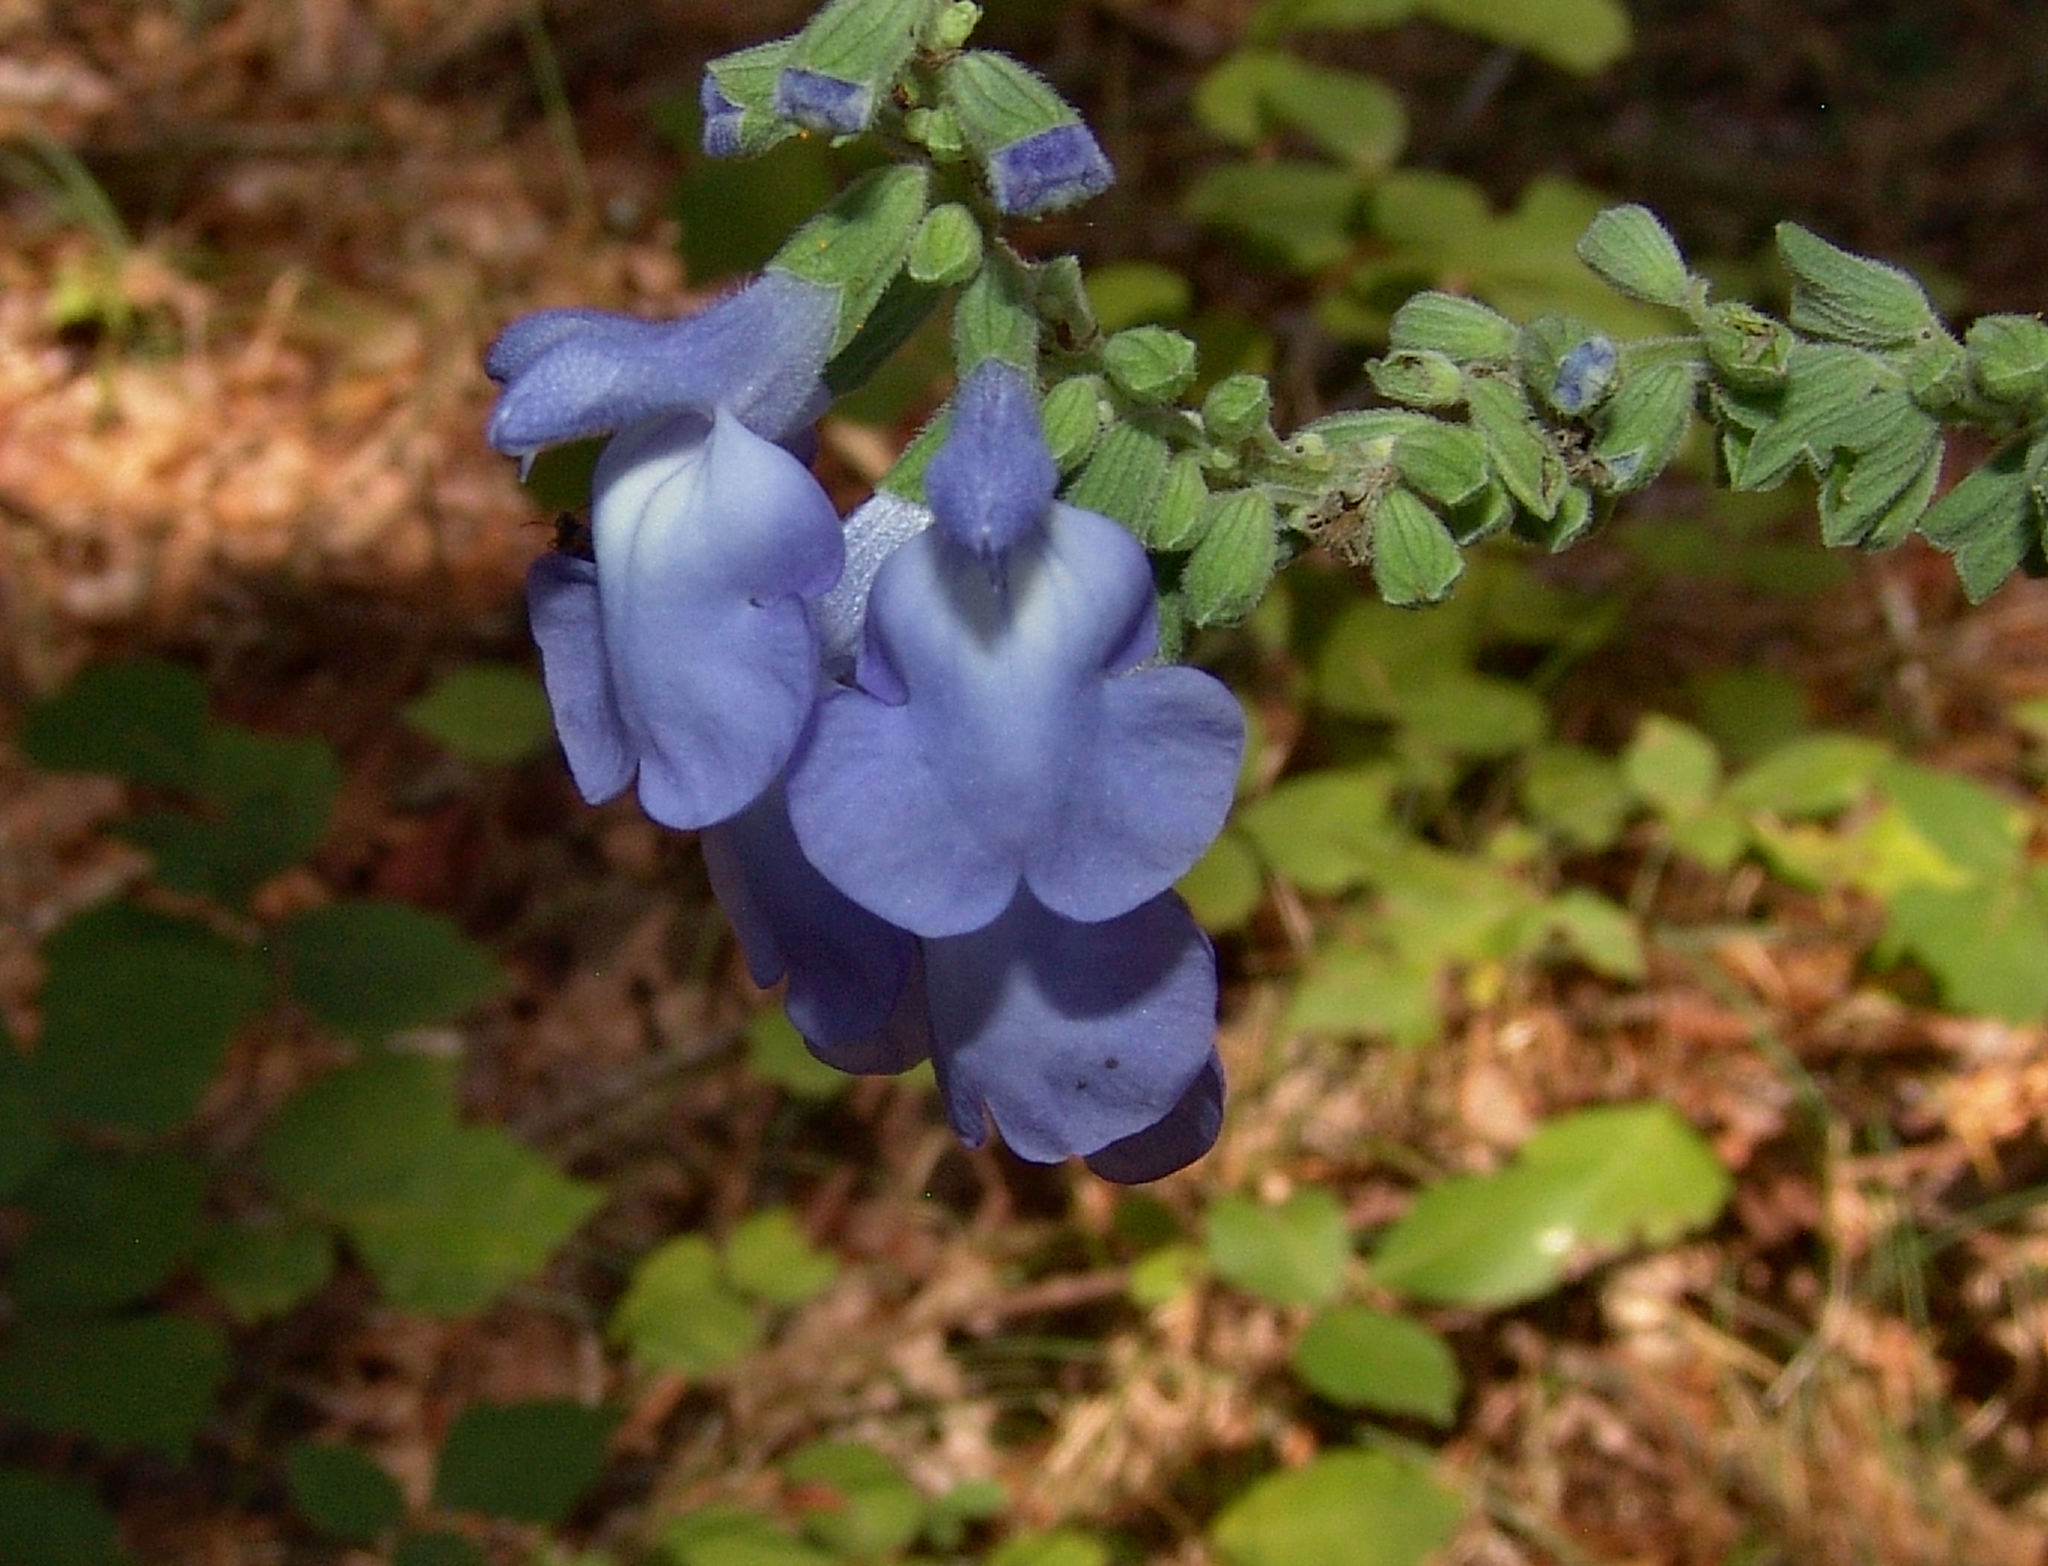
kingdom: Plantae
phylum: Tracheophyta
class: Magnoliopsida
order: Lamiales
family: Lamiaceae
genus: Salvia
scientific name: Salvia azurea
